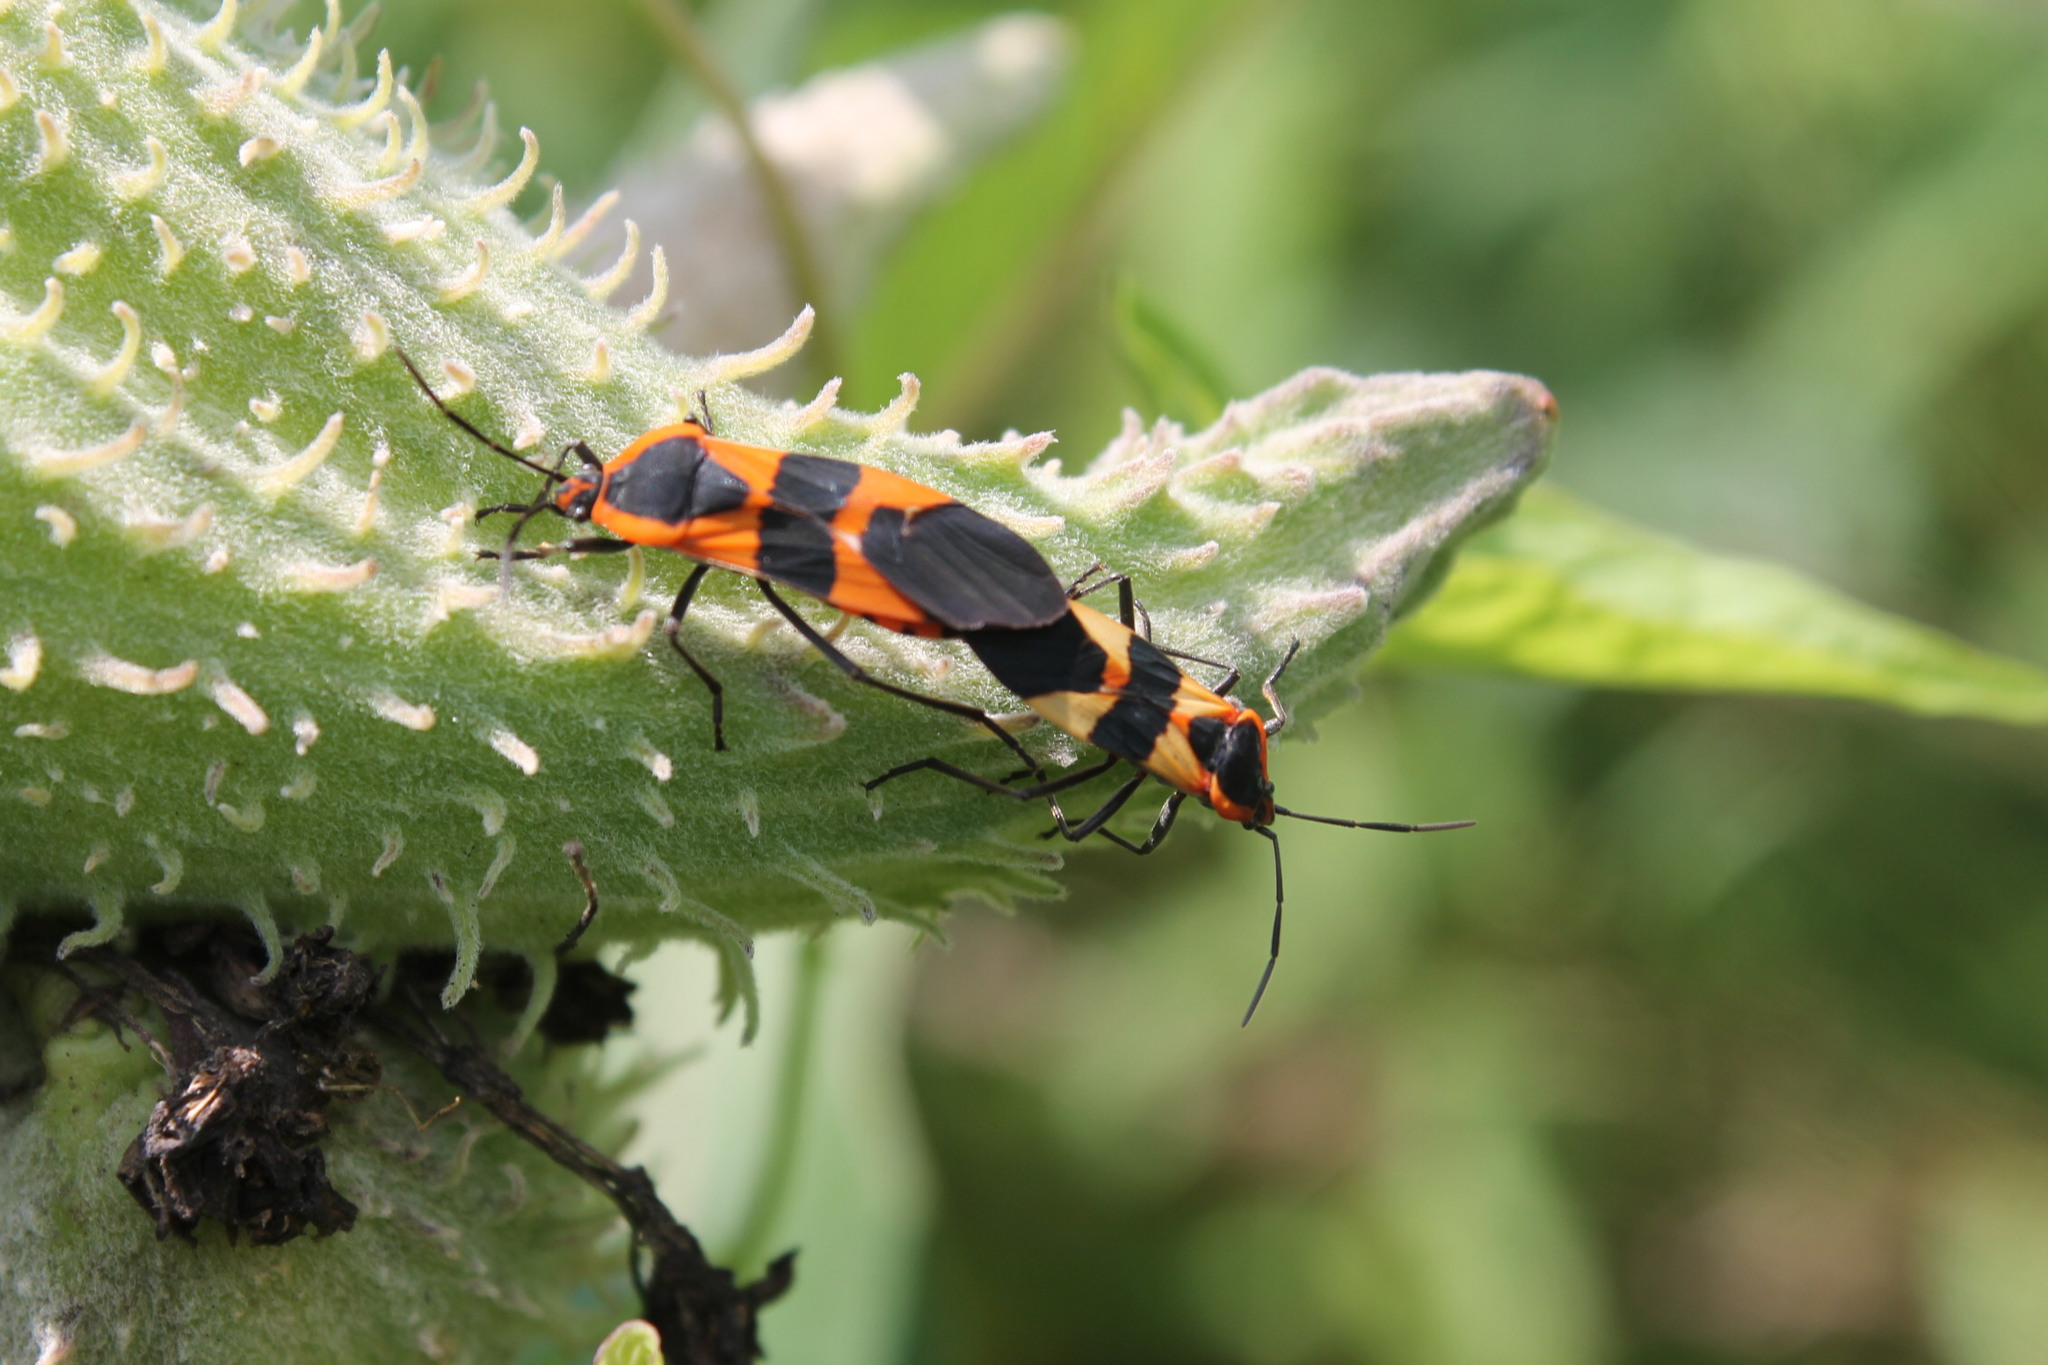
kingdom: Animalia
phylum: Arthropoda
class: Insecta
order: Hemiptera
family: Lygaeidae
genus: Oncopeltus
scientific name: Oncopeltus fasciatus
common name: Large milkweed bug
